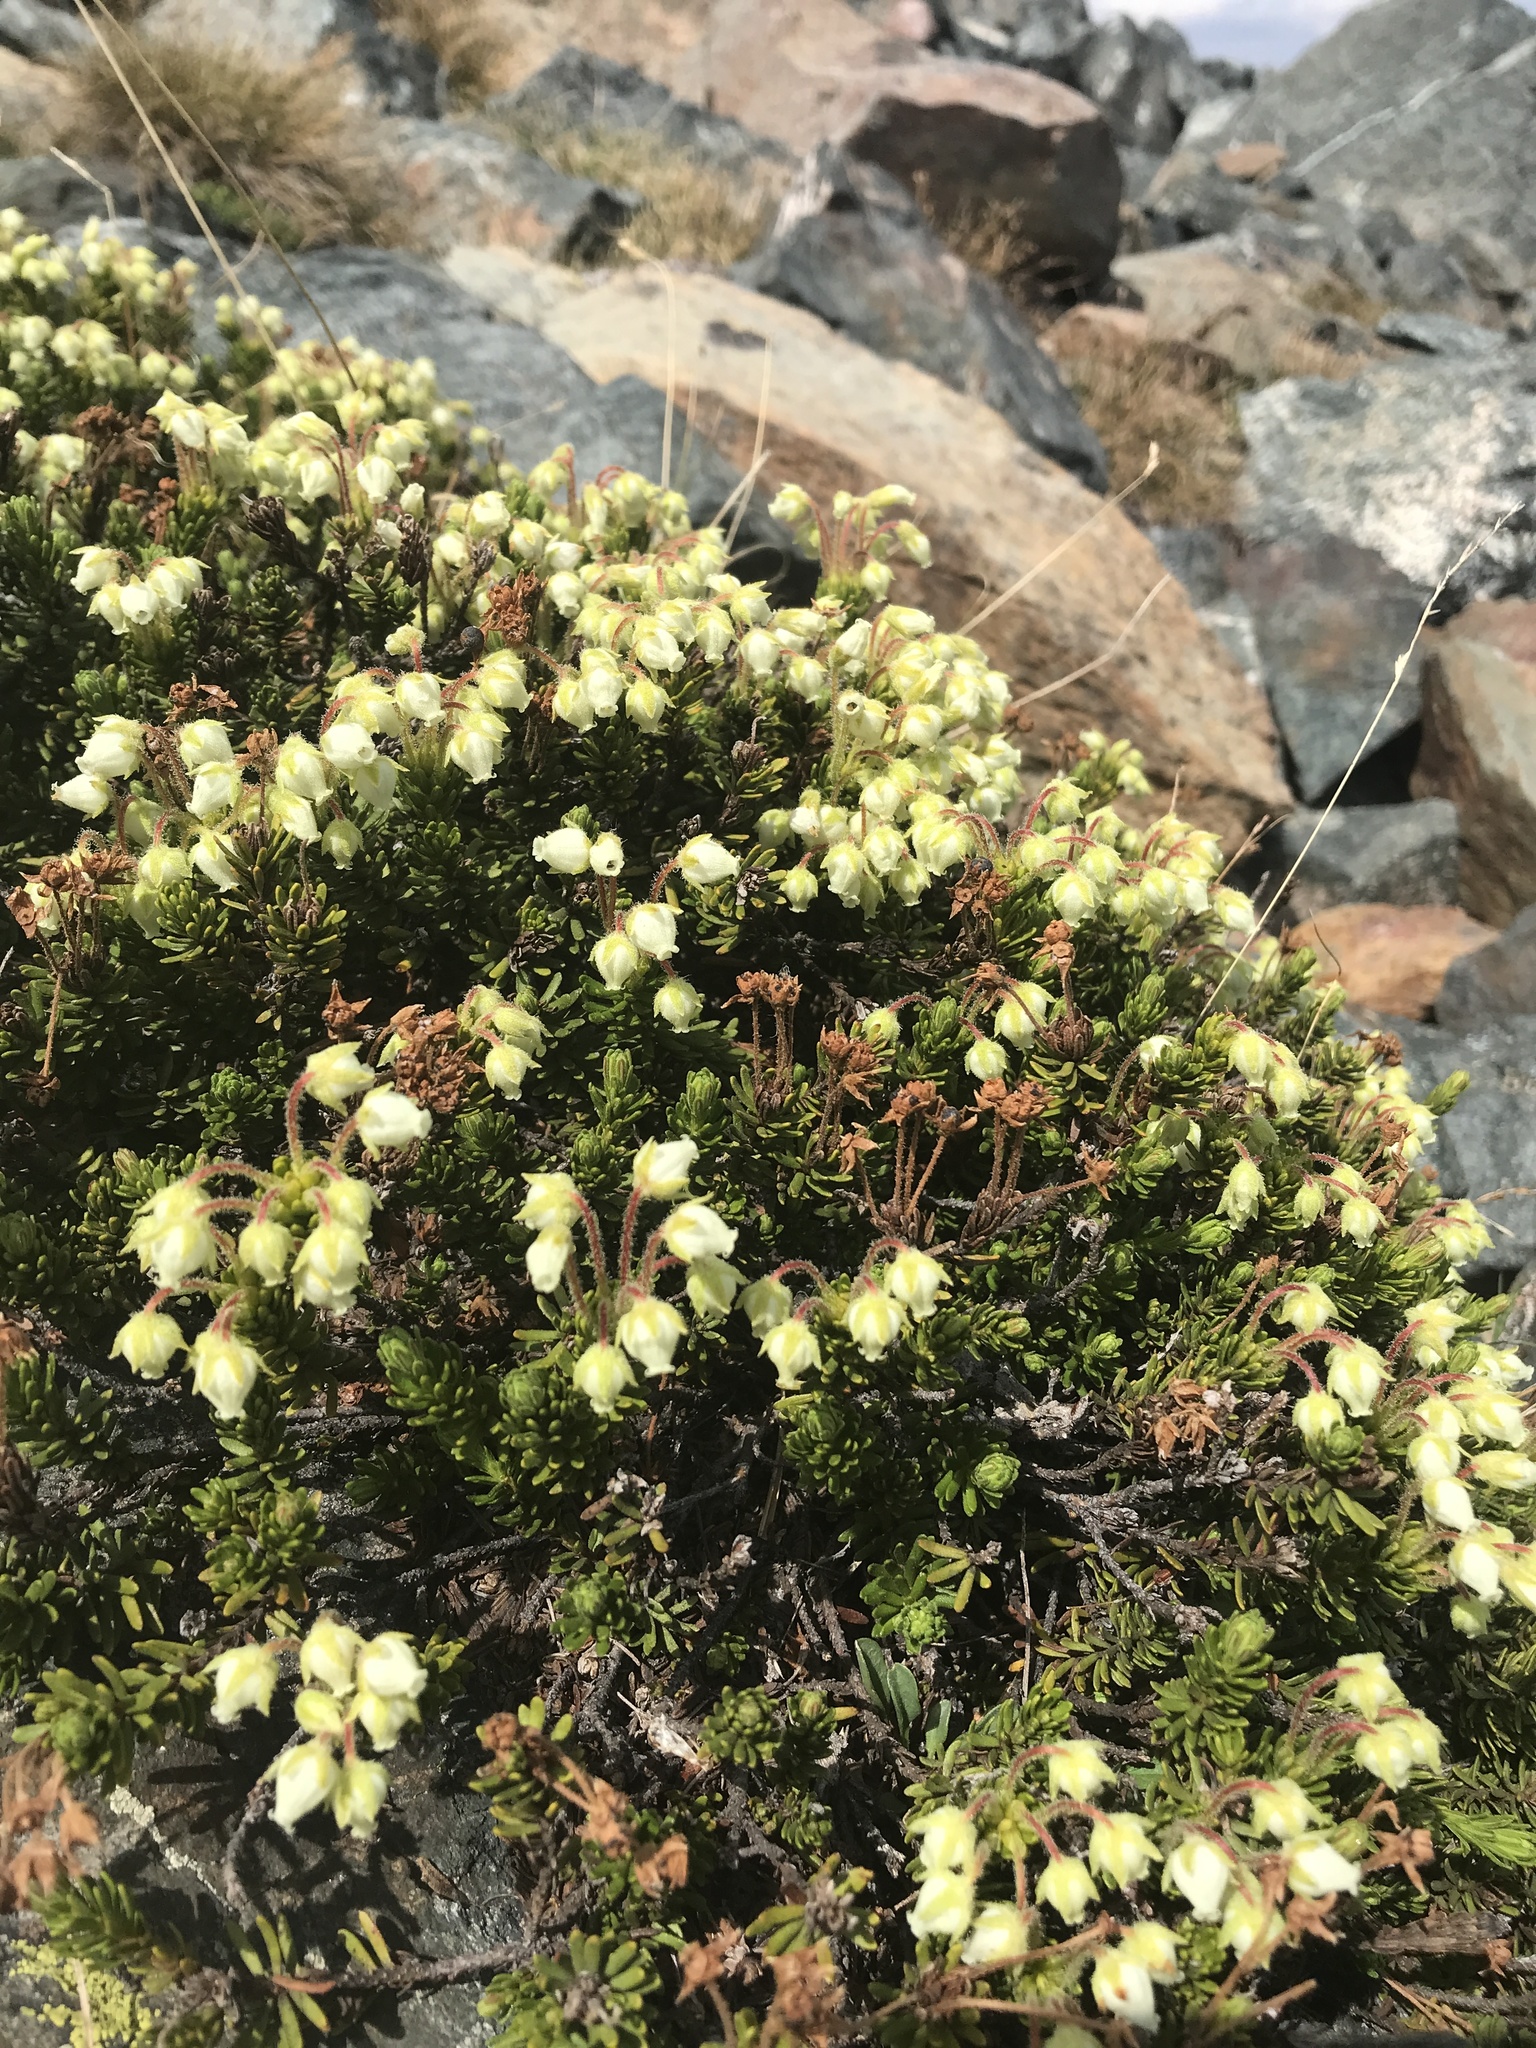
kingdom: Plantae
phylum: Tracheophyta
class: Magnoliopsida
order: Ericales
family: Ericaceae
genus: Phyllodoce
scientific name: Phyllodoce glanduliflora
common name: Cream mountain heather
